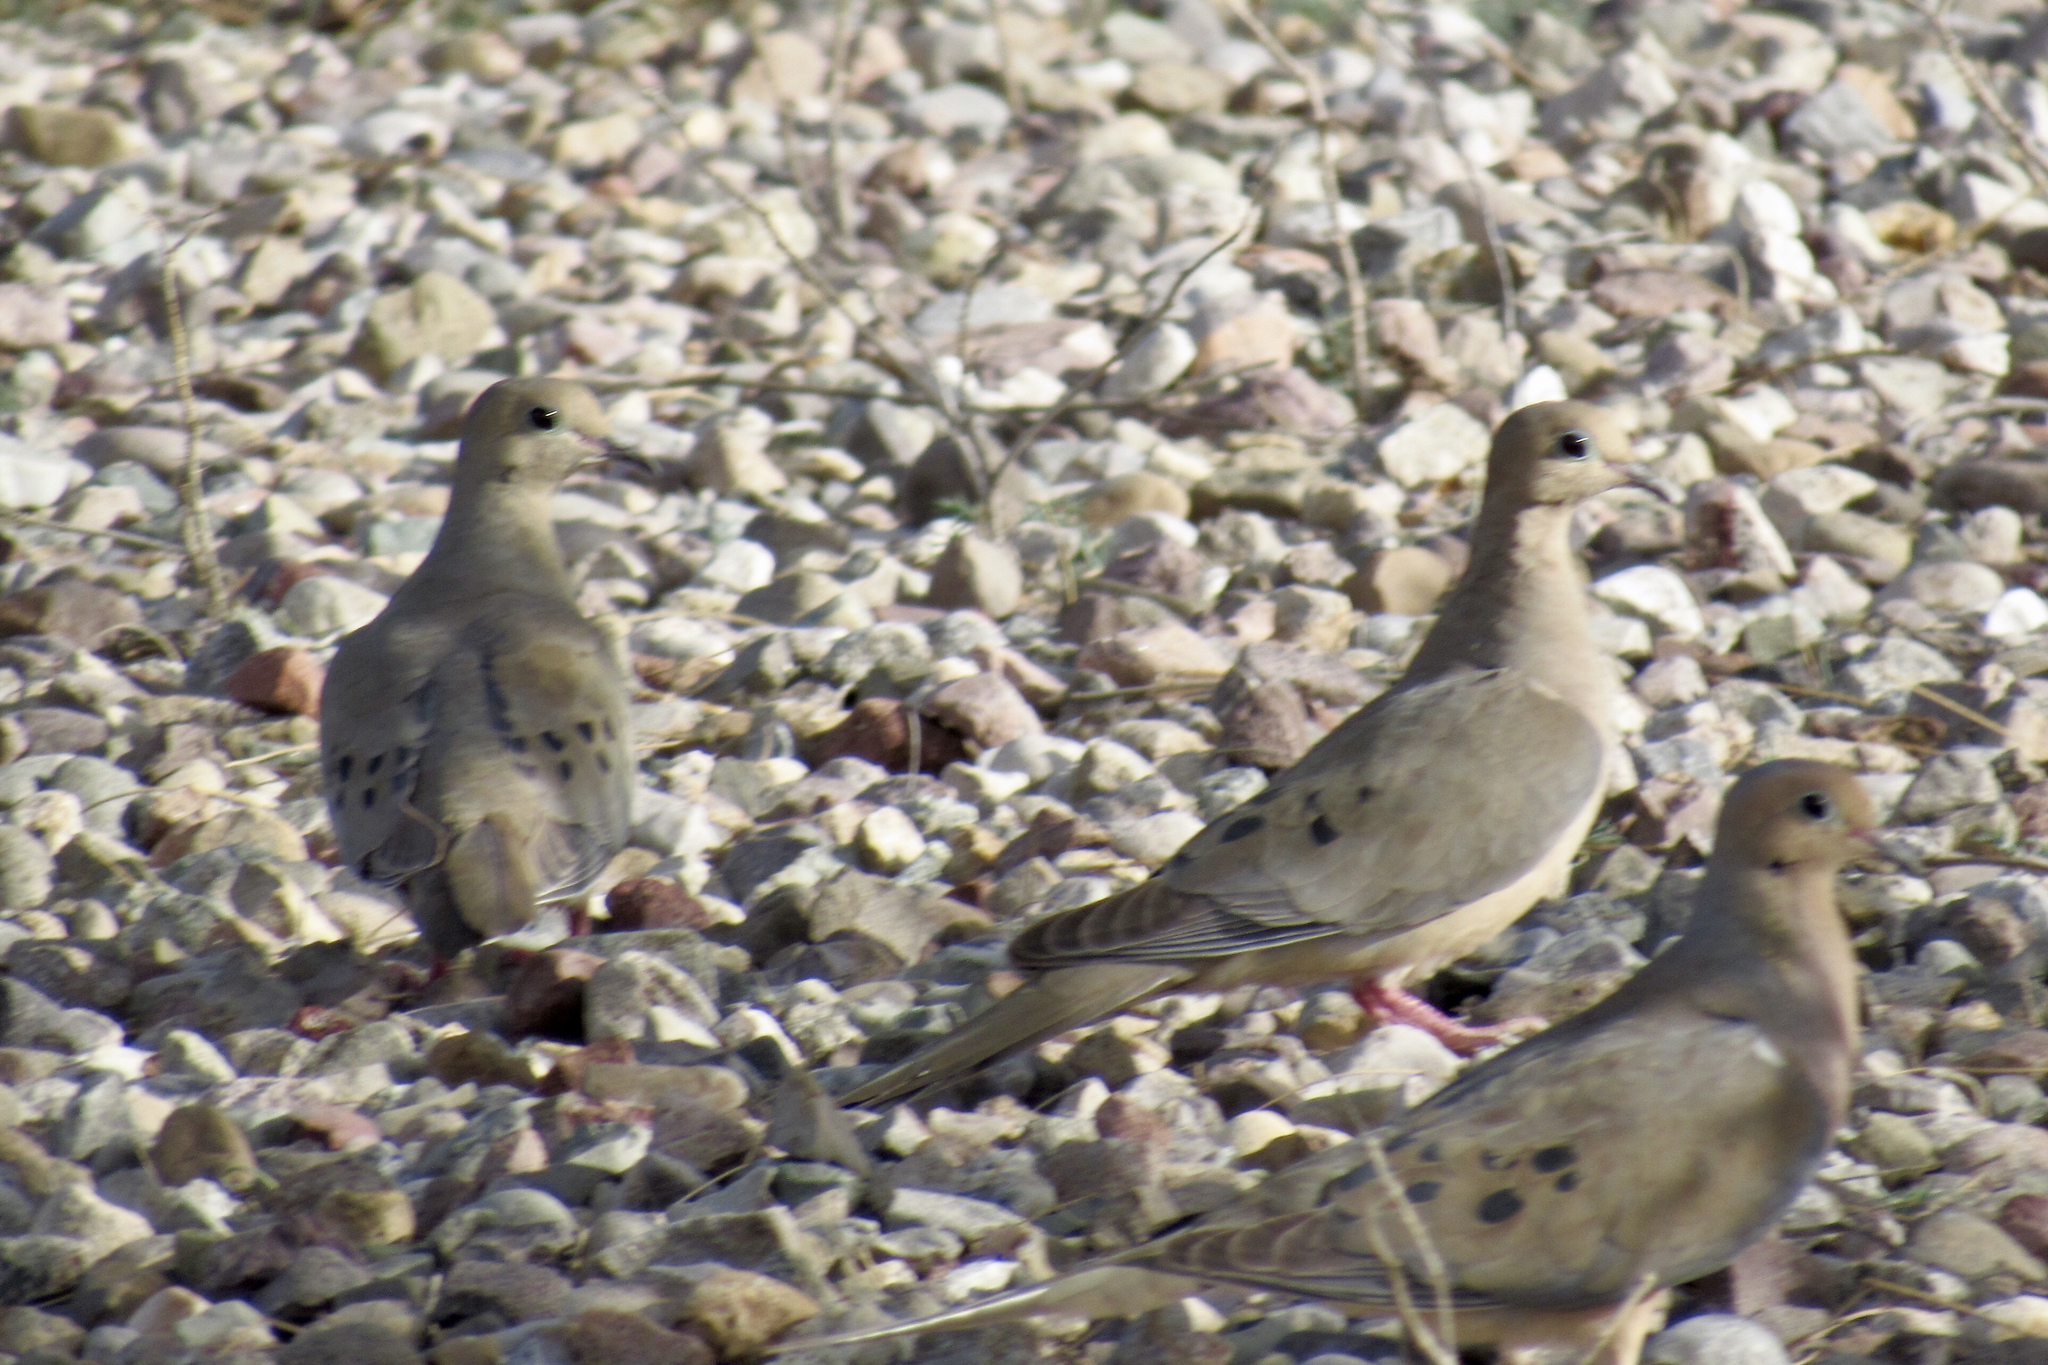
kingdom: Animalia
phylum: Chordata
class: Aves
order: Columbiformes
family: Columbidae
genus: Zenaida
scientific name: Zenaida macroura
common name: Mourning dove
